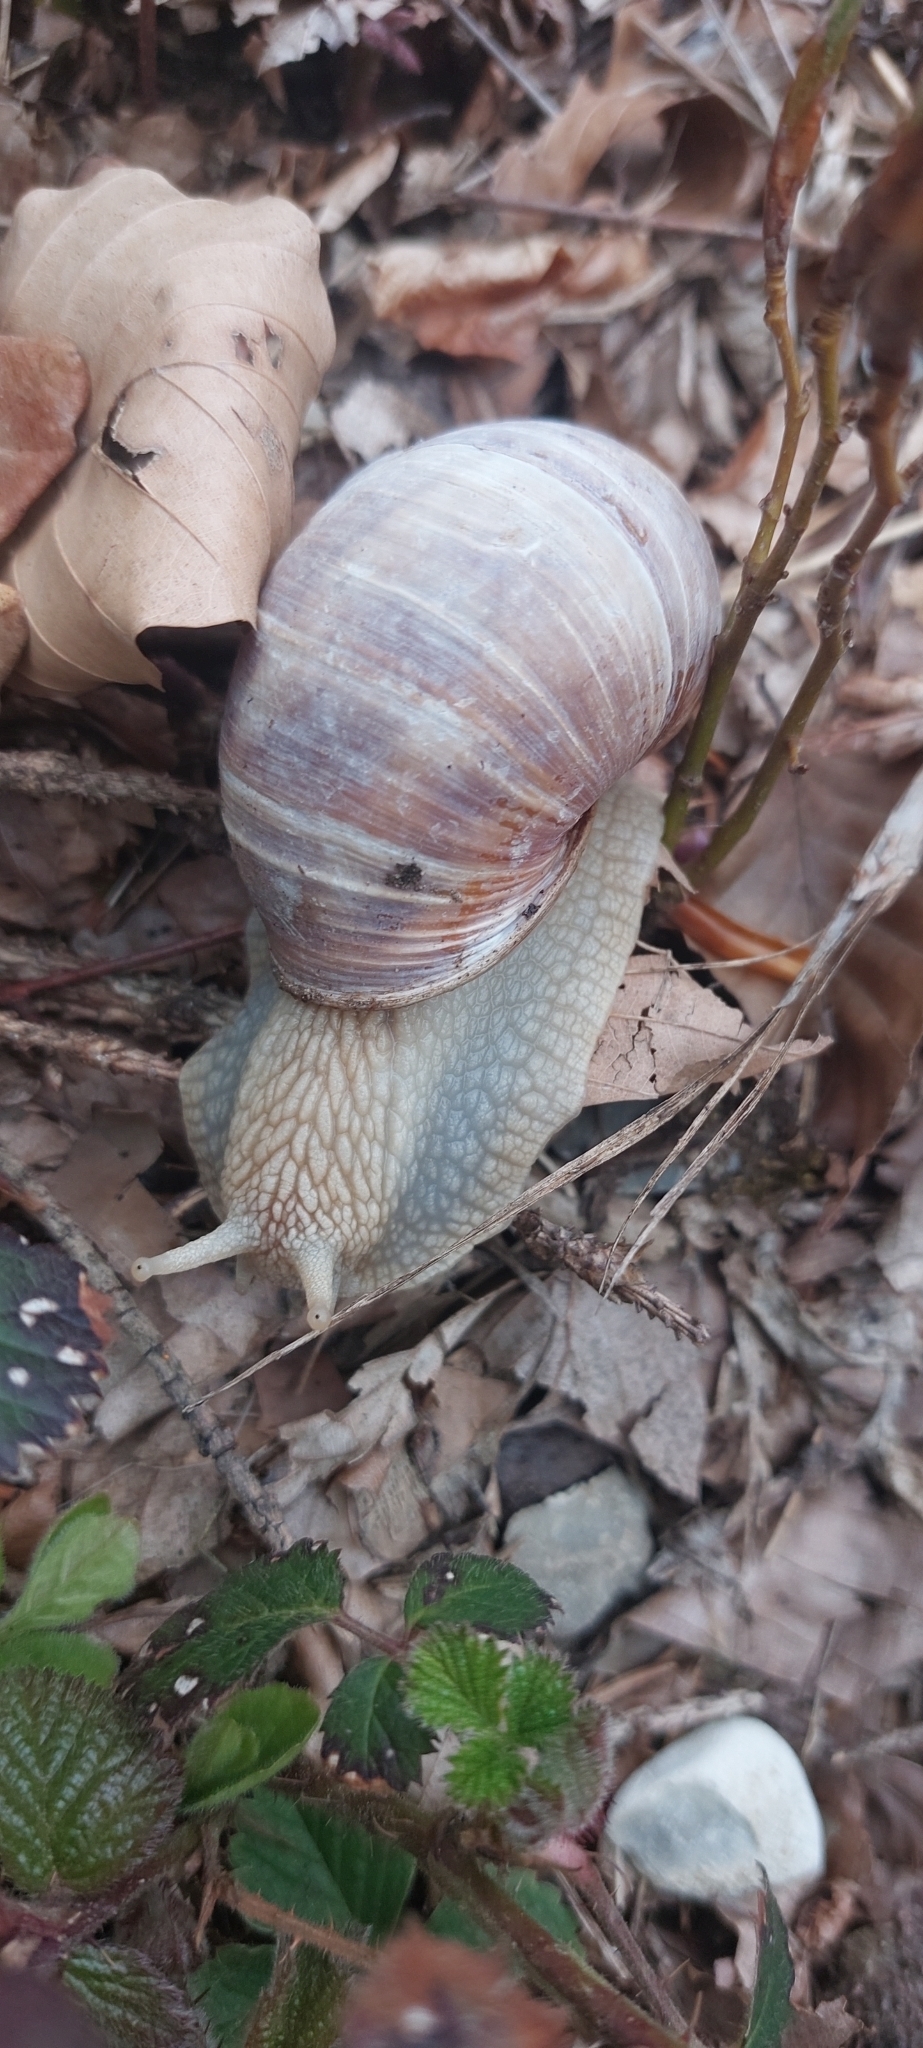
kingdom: Animalia
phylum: Mollusca
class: Gastropoda
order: Stylommatophora
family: Helicidae
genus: Helix
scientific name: Helix pomatia
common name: Roman snail
